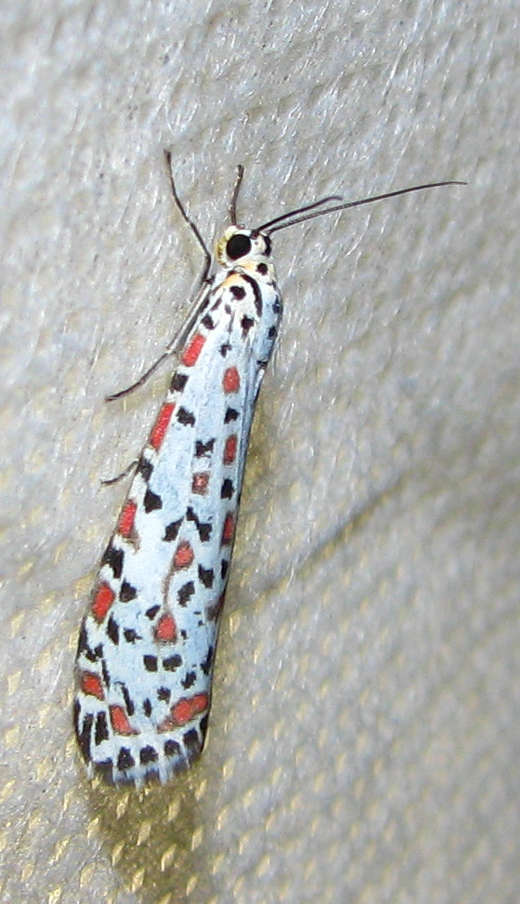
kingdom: Animalia
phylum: Arthropoda
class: Insecta
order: Lepidoptera
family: Erebidae
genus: Utetheisa
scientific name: Utetheisa pulchelloides
